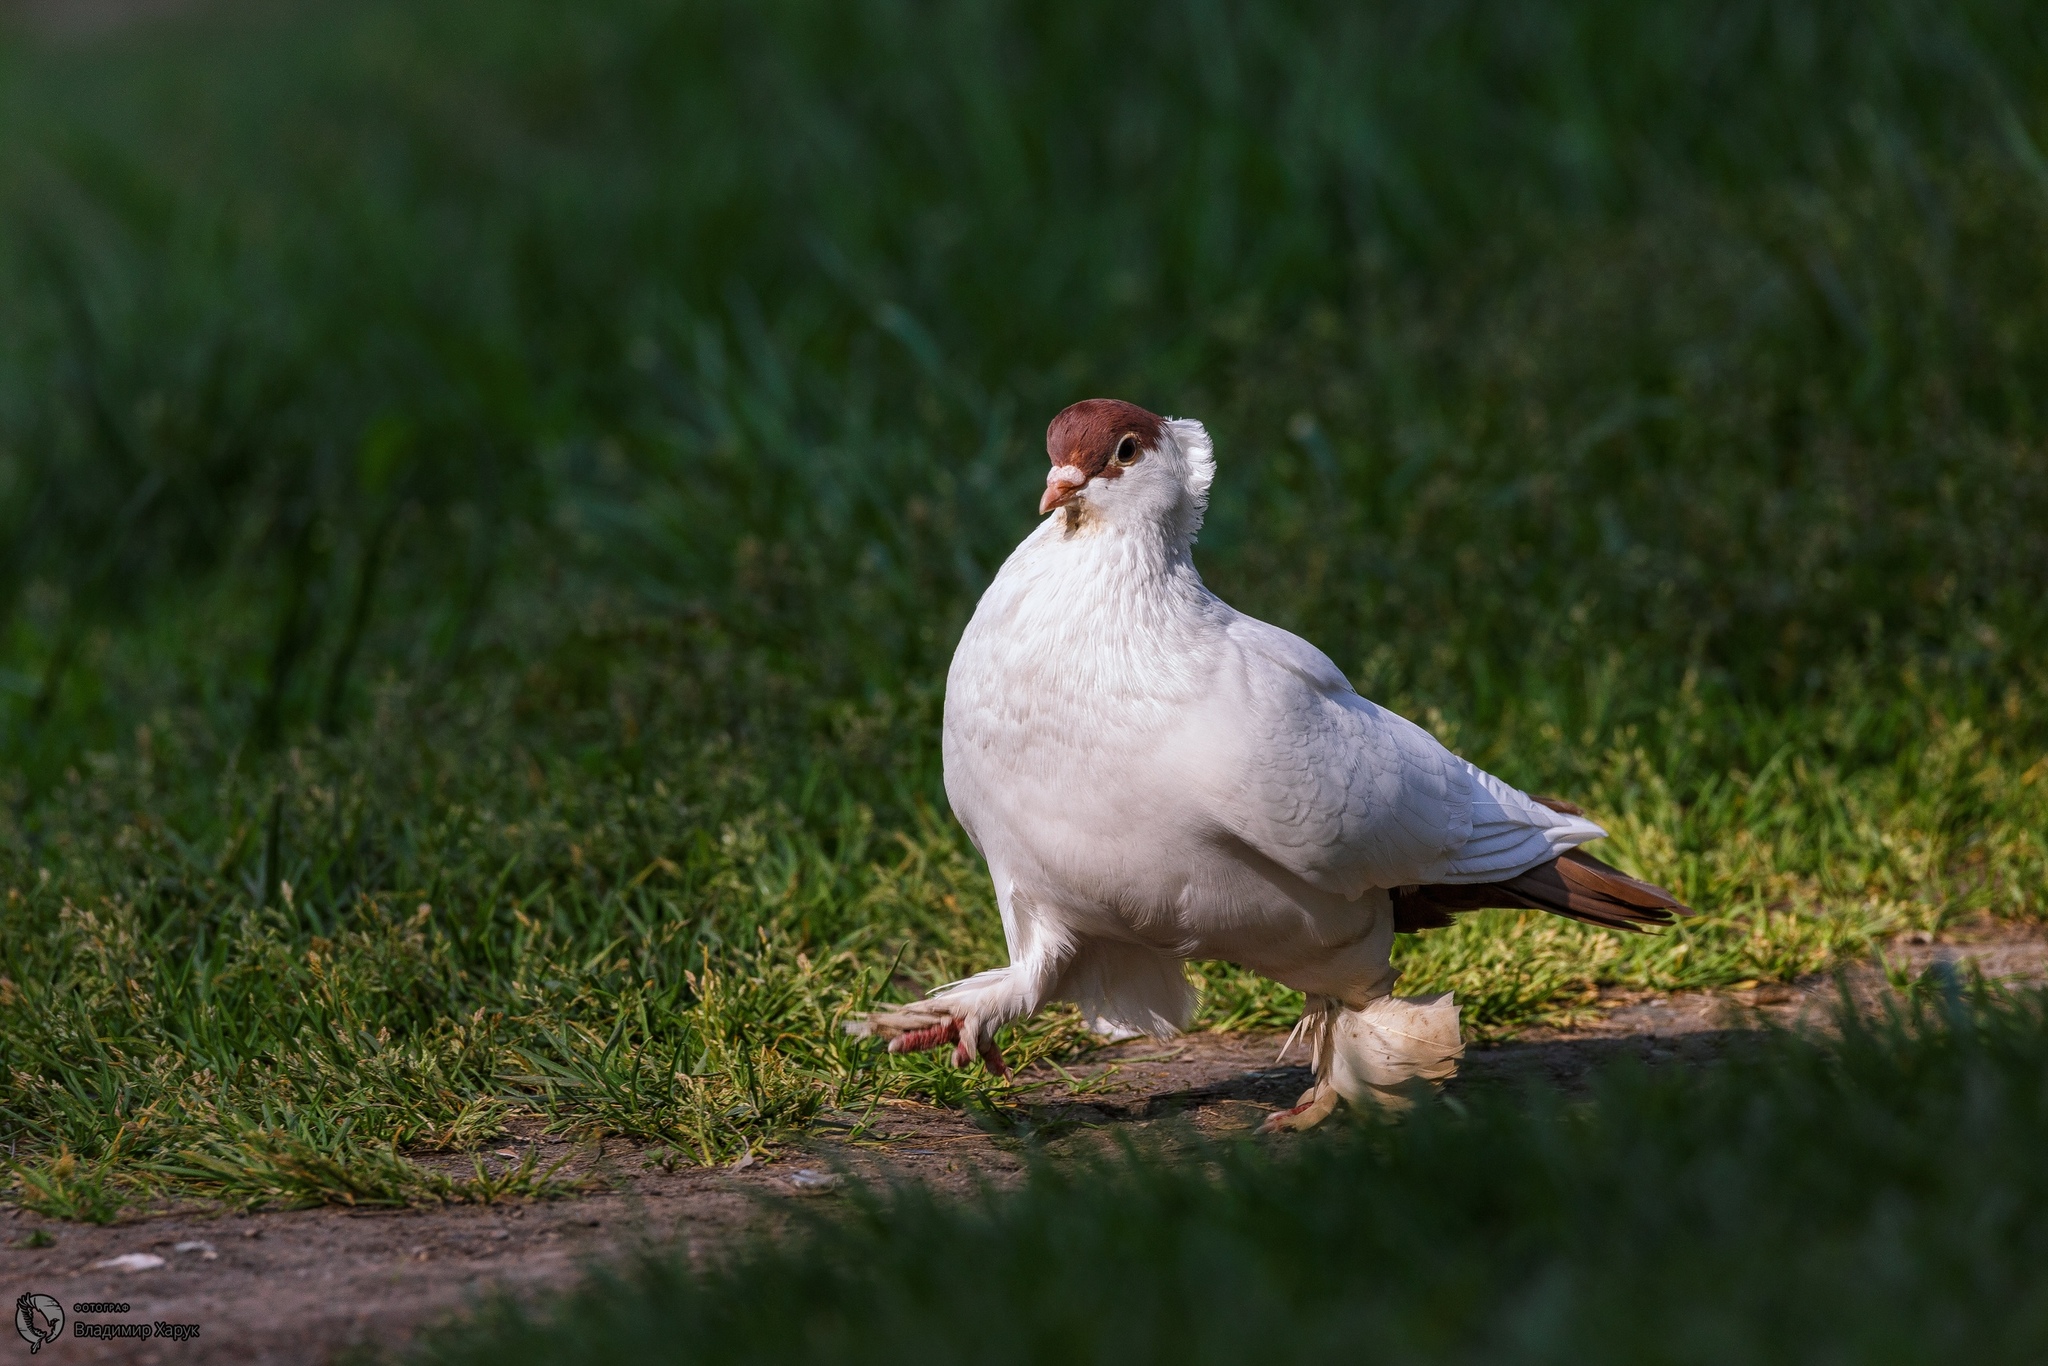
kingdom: Animalia
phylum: Chordata
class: Aves
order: Columbiformes
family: Columbidae
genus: Columba
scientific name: Columba livia
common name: Rock pigeon
